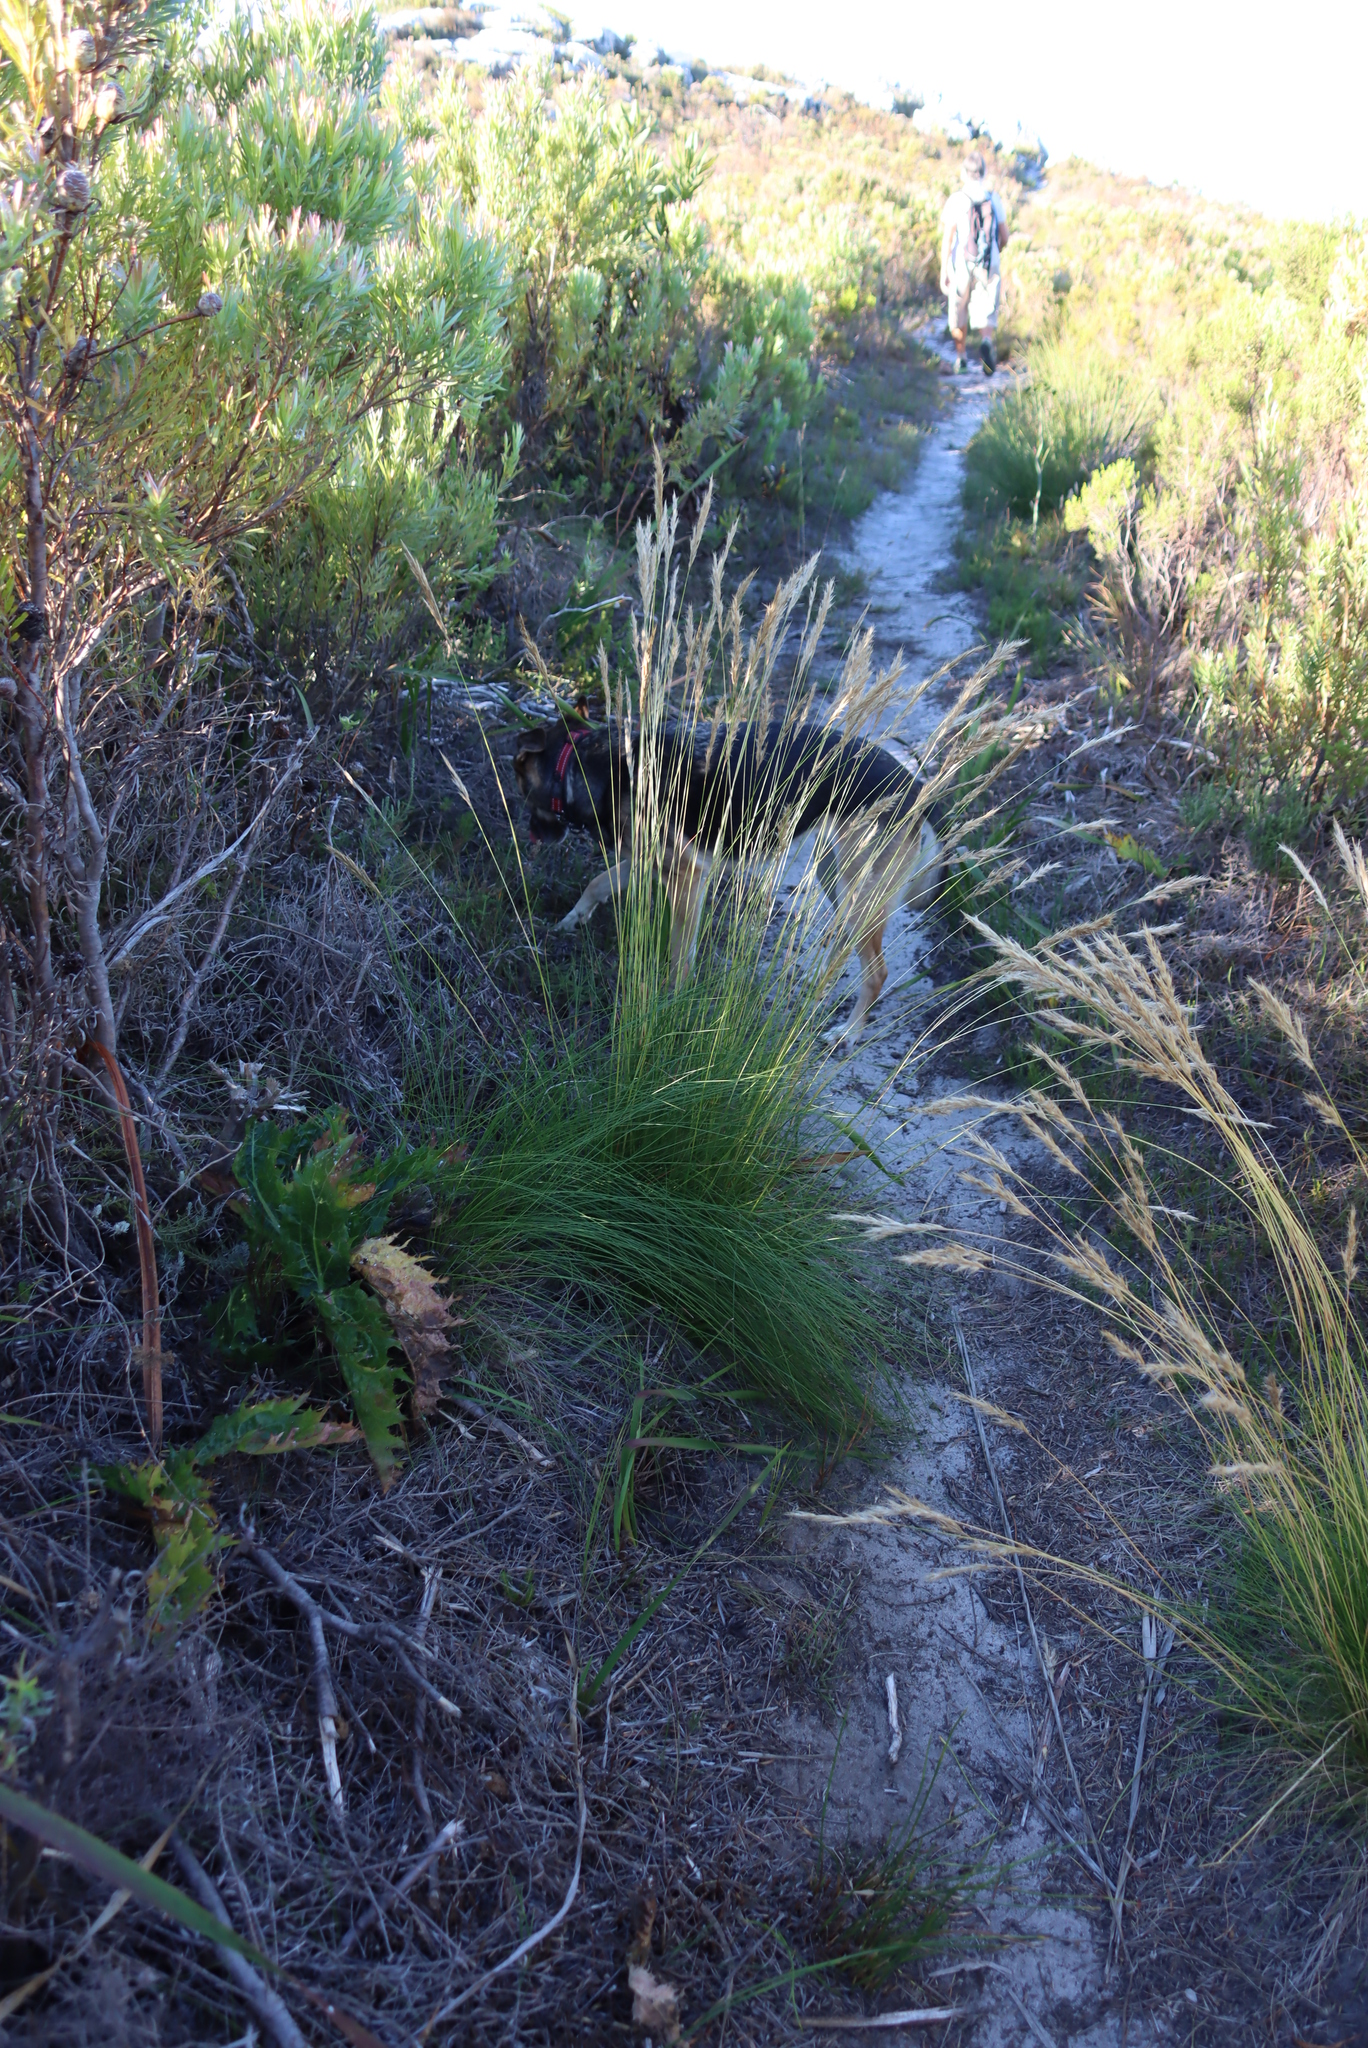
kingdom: Plantae
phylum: Tracheophyta
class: Liliopsida
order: Poales
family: Poaceae
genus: Tenaxia
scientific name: Tenaxia stricta
